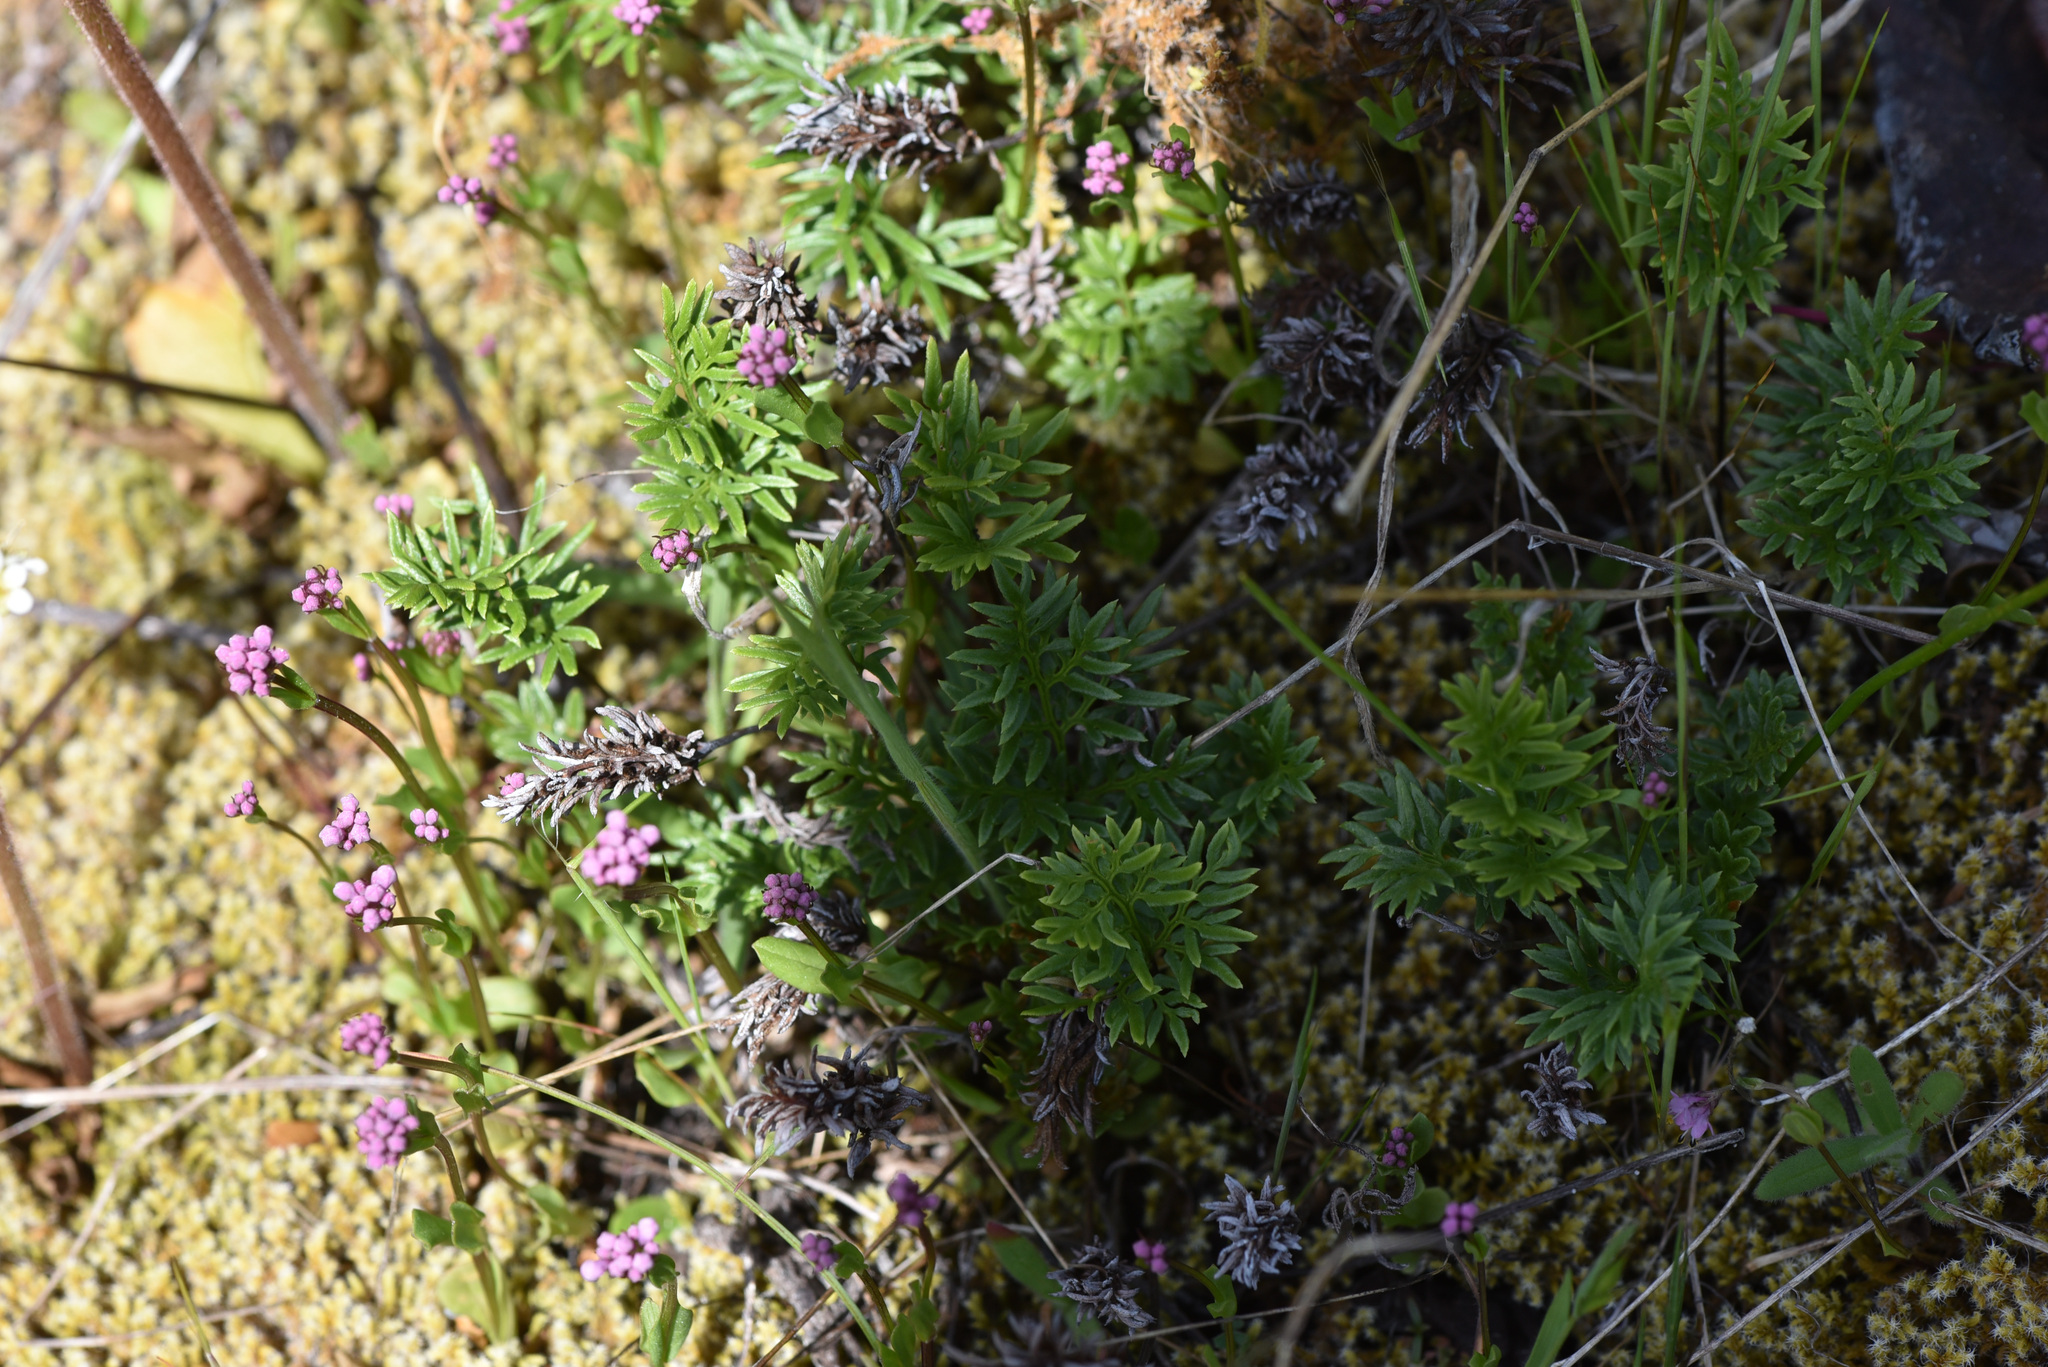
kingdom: Plantae
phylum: Tracheophyta
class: Polypodiopsida
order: Polypodiales
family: Pteridaceae
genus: Aspidotis
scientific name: Aspidotis densa
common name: Indian's dream
